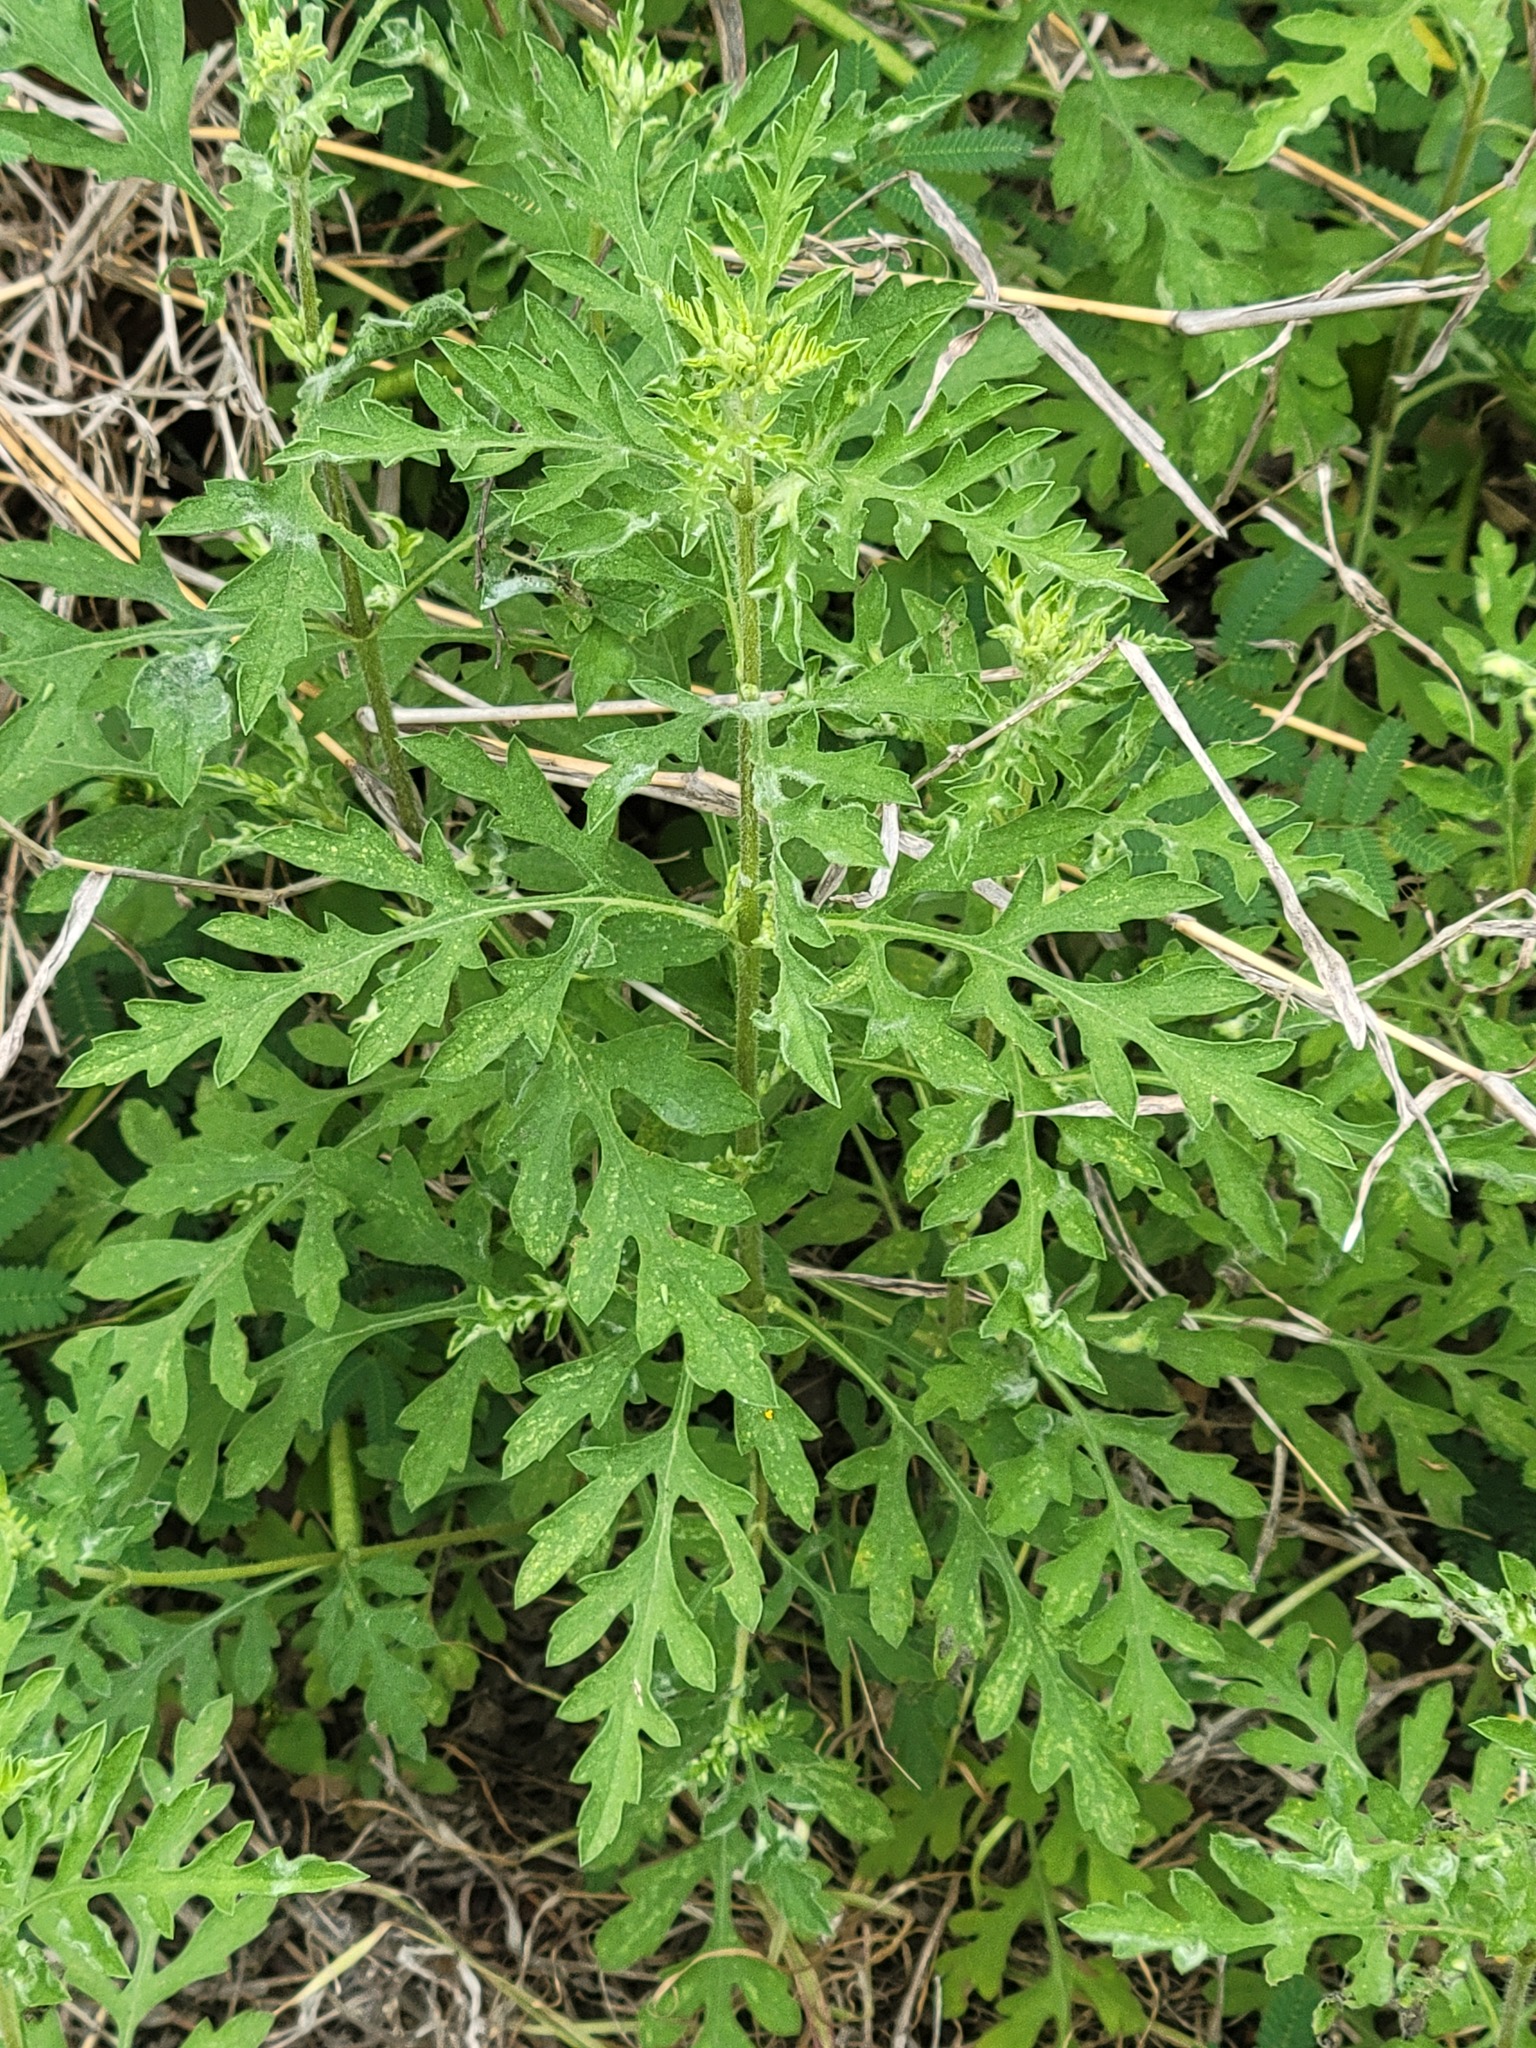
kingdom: Plantae
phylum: Tracheophyta
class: Magnoliopsida
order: Asterales
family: Asteraceae
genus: Ambrosia
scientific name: Ambrosia psilostachya
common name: Perennial ragweed
